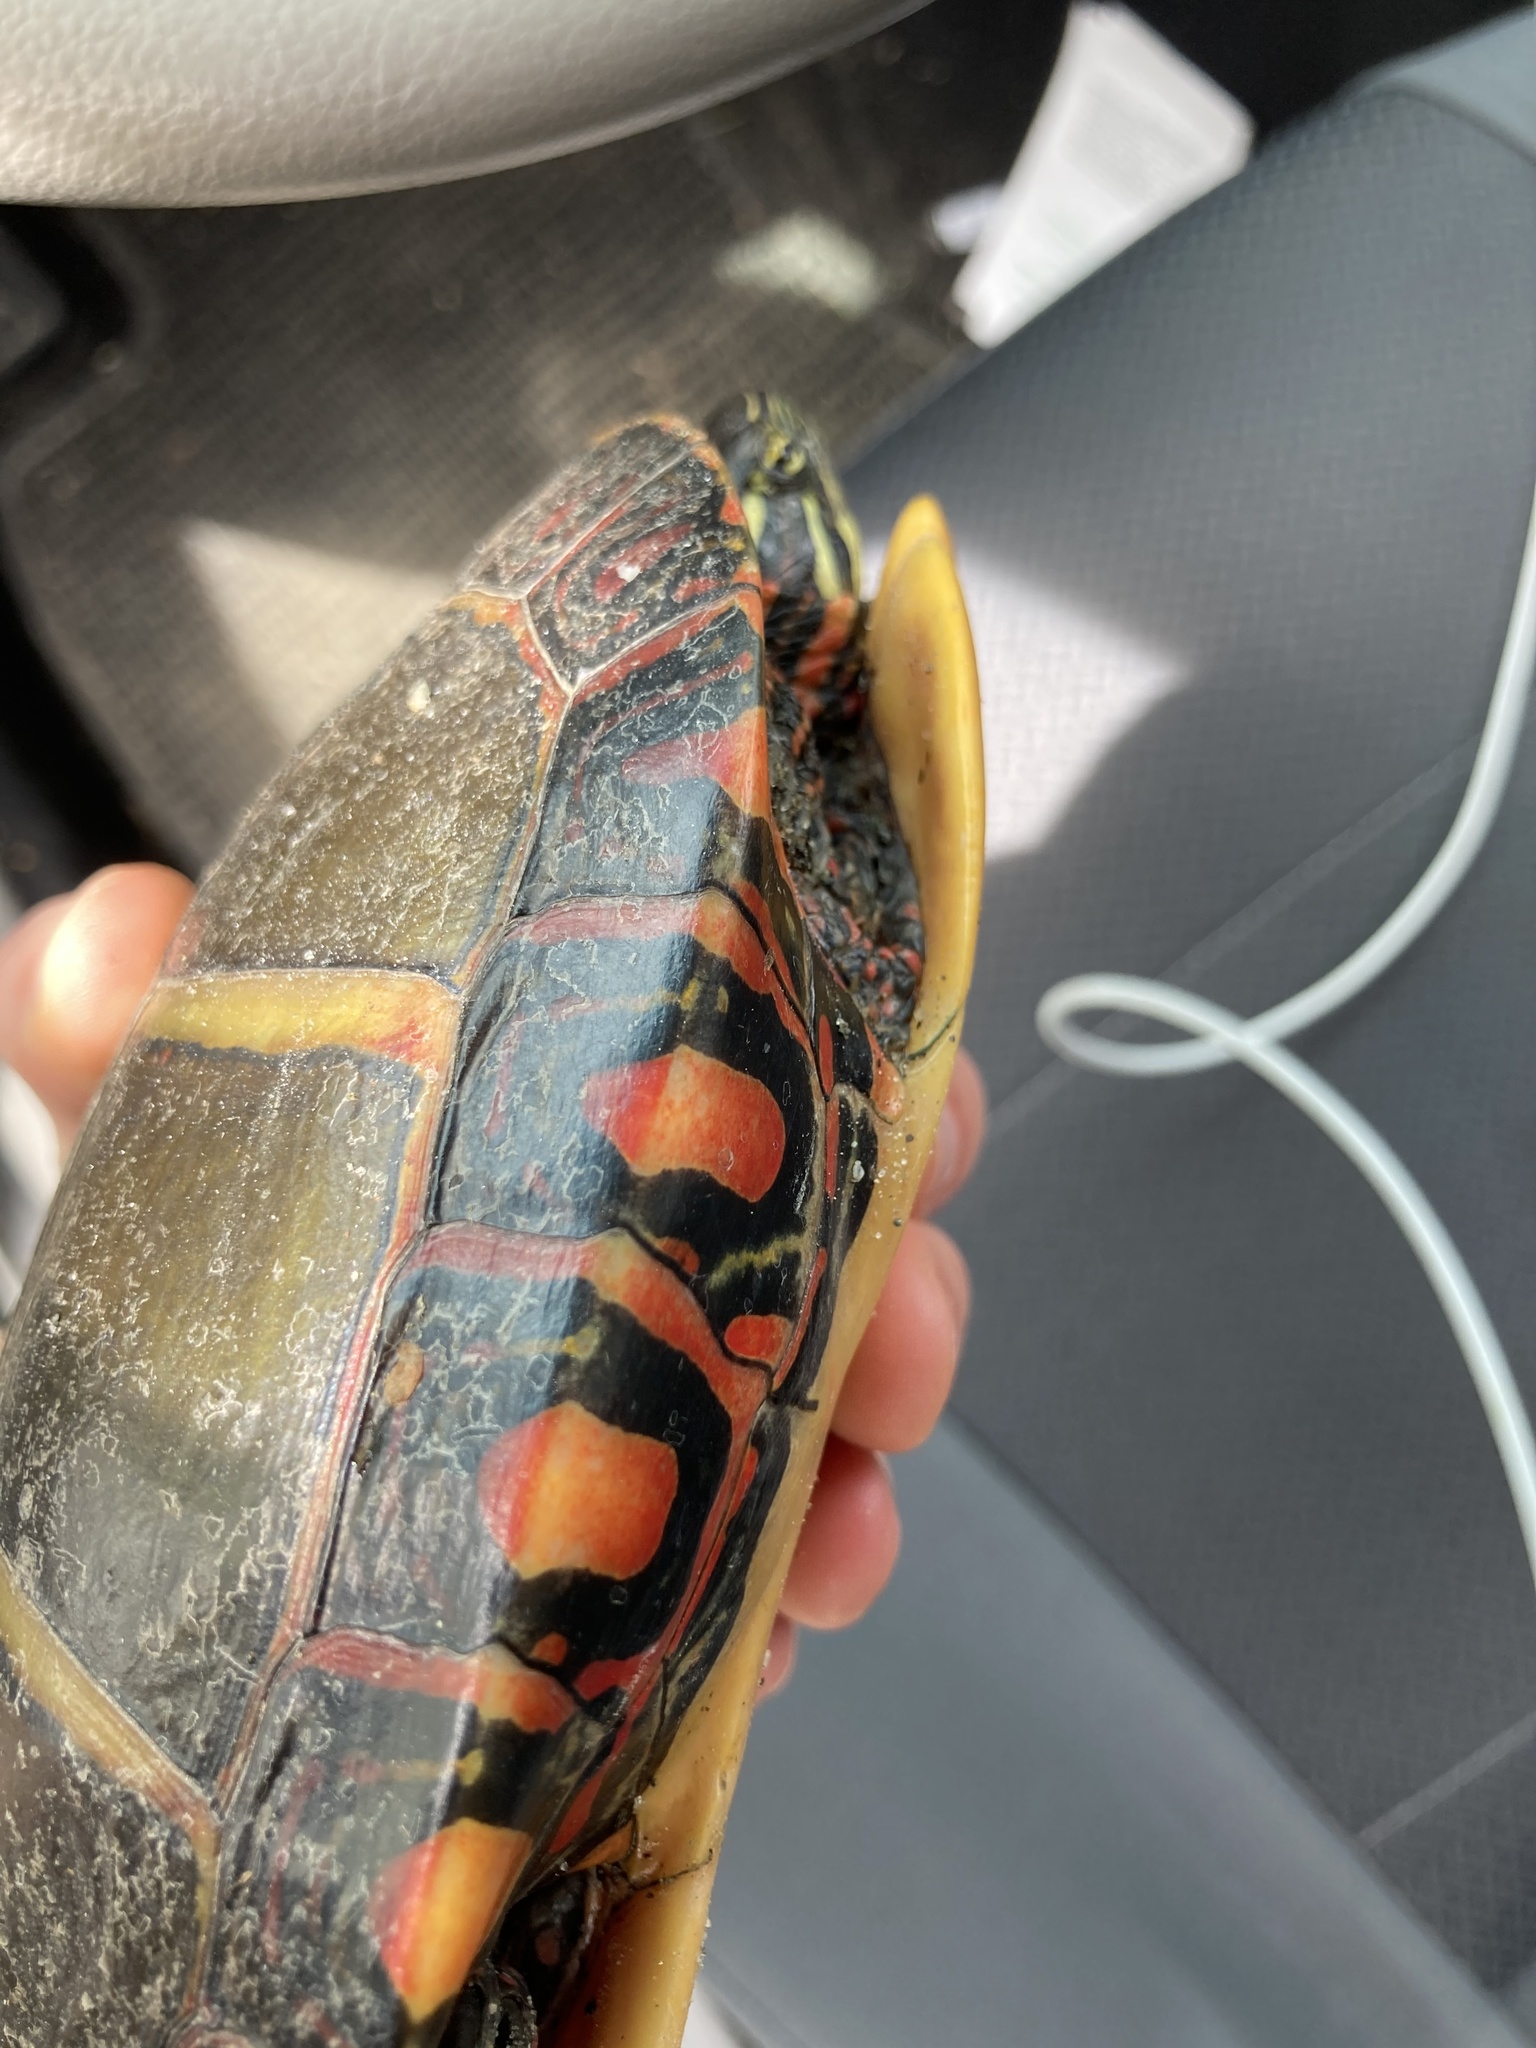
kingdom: Animalia
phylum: Chordata
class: Testudines
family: Emydidae
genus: Chrysemys
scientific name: Chrysemys picta
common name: Painted turtle
